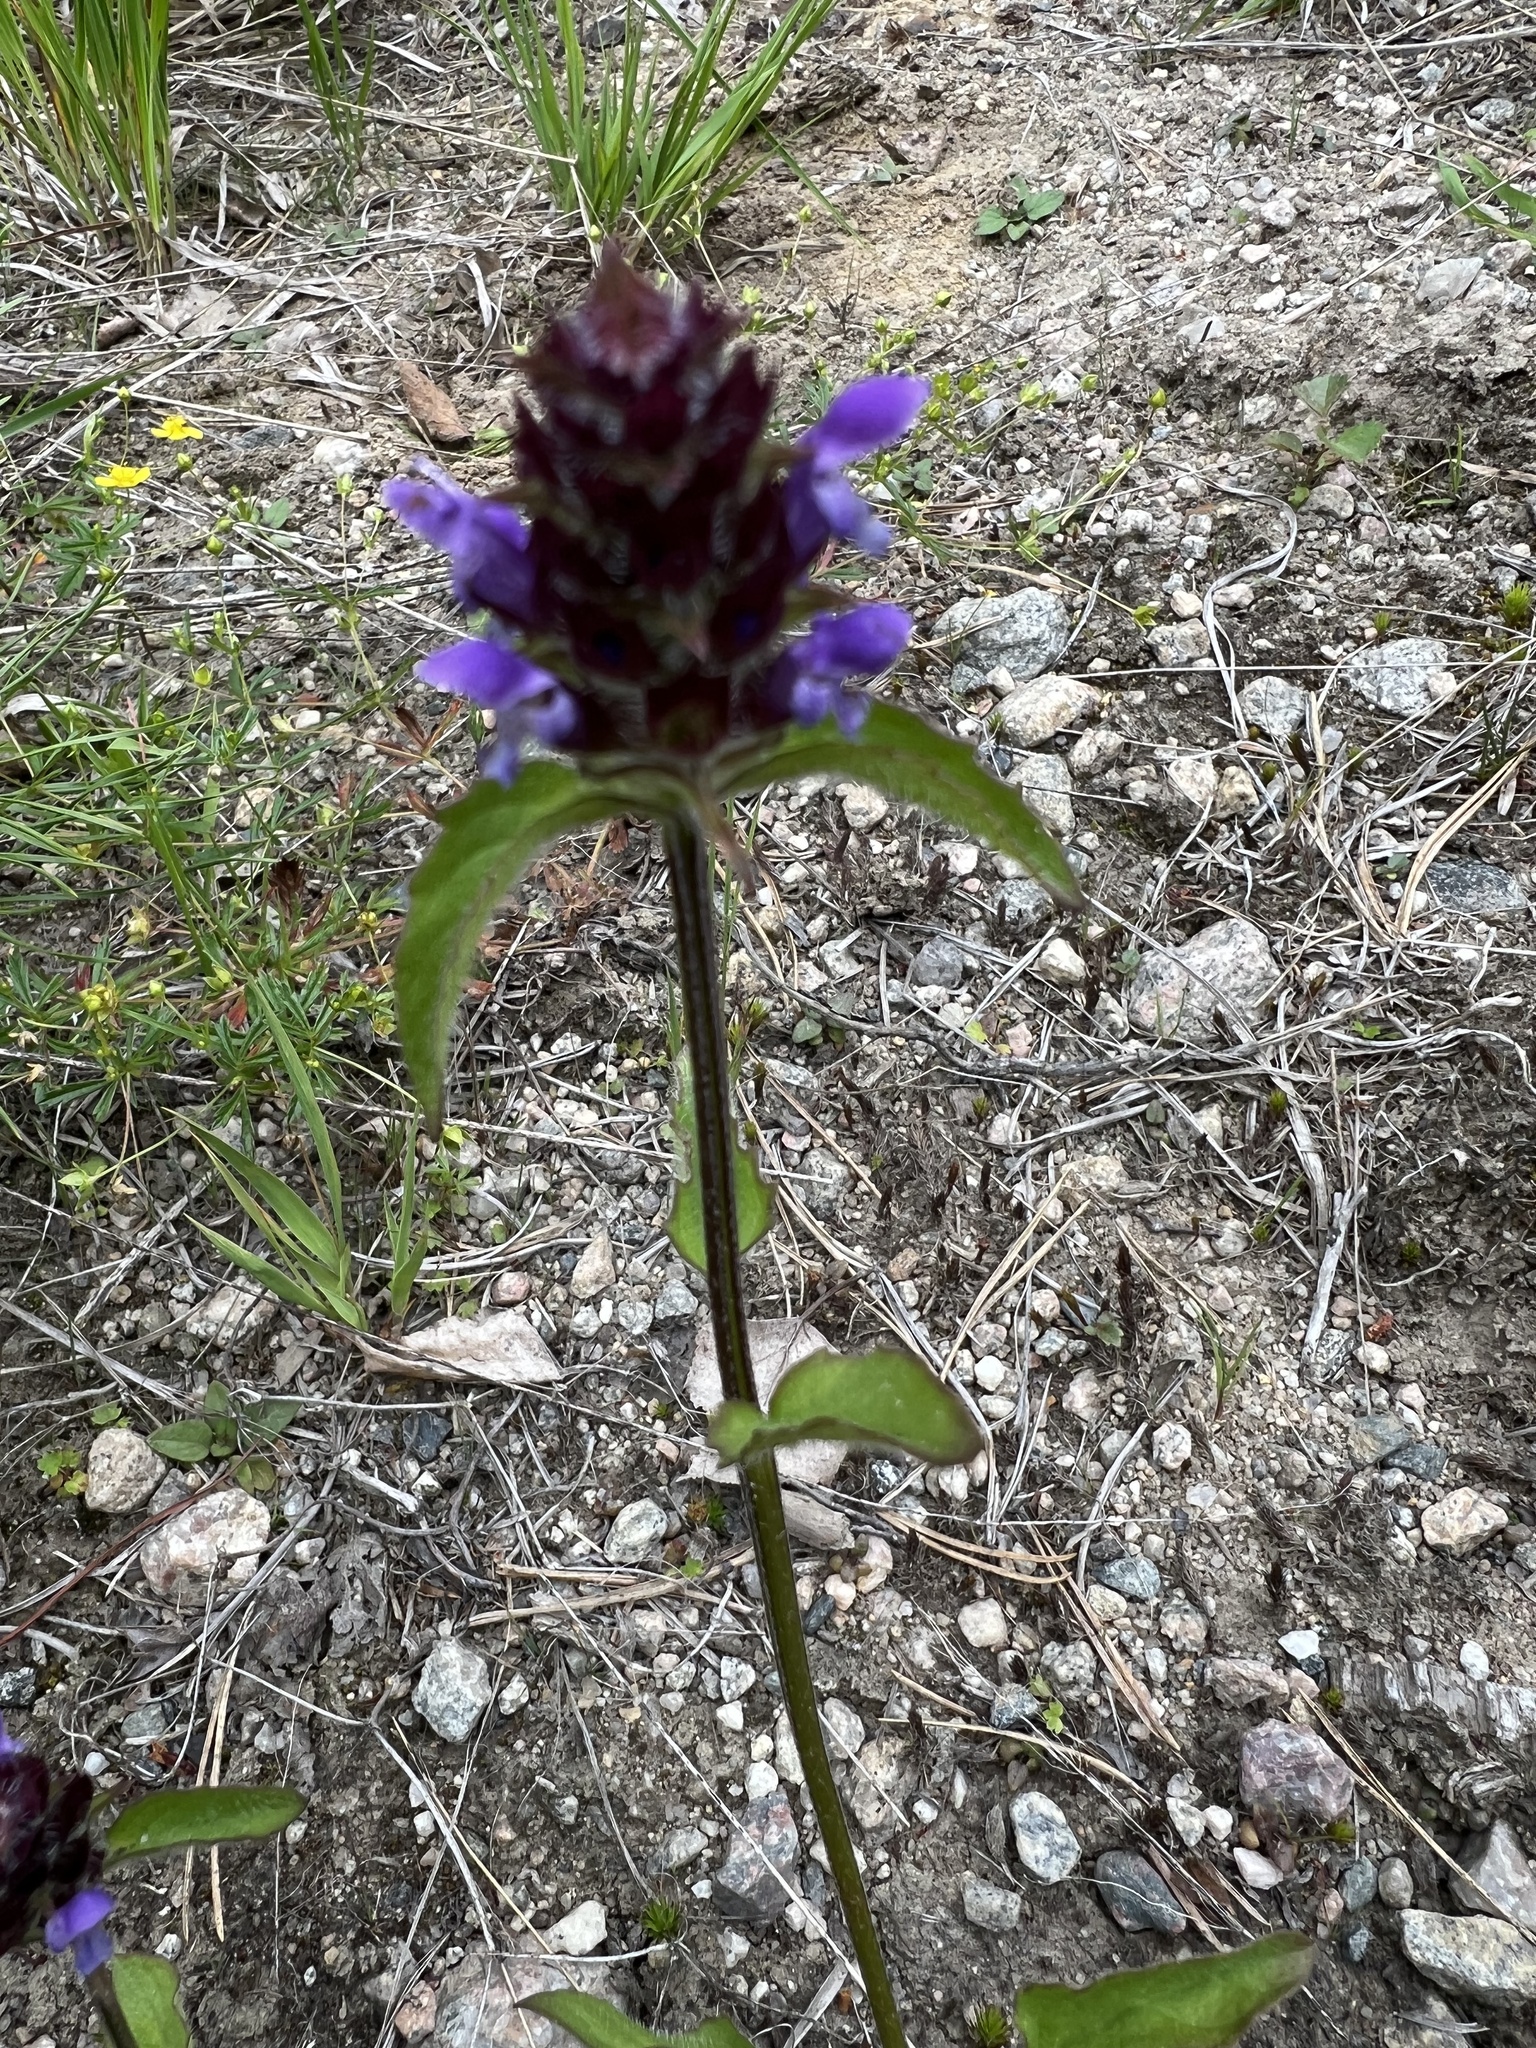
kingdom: Plantae
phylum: Tracheophyta
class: Magnoliopsida
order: Lamiales
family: Lamiaceae
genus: Prunella
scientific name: Prunella vulgaris
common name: Heal-all
